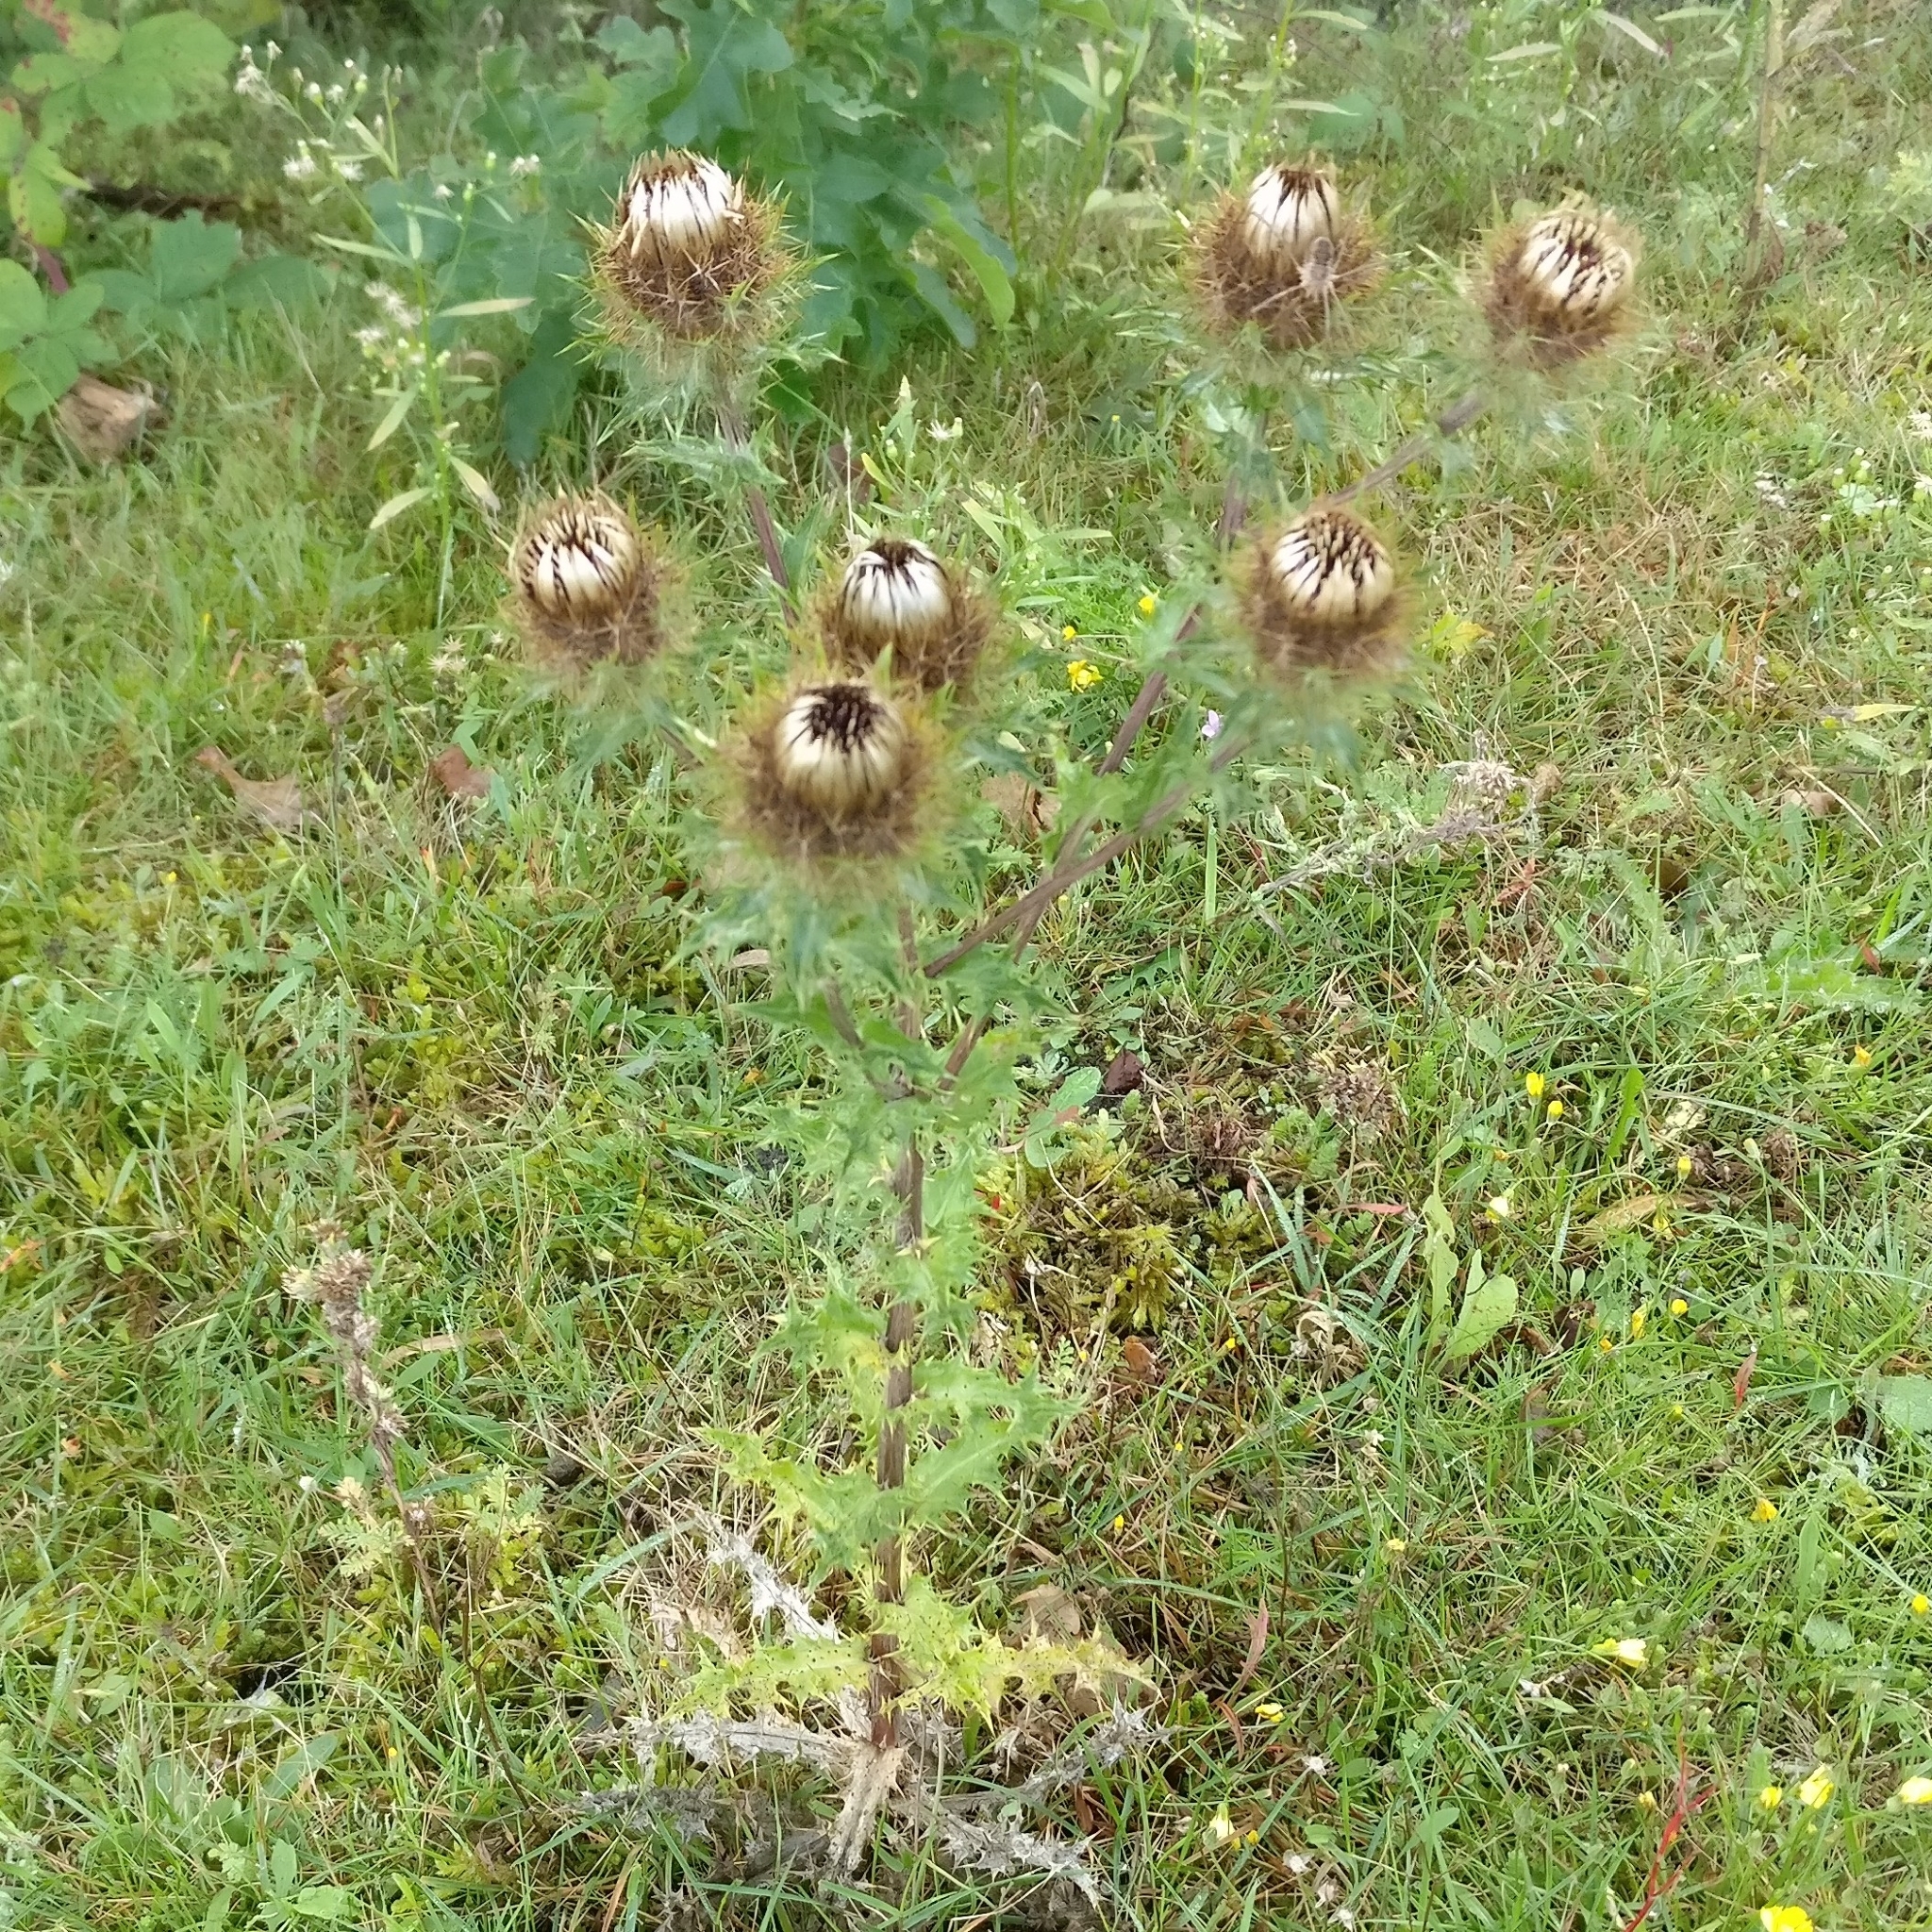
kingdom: Plantae
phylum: Tracheophyta
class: Magnoliopsida
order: Asterales
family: Asteraceae
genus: Carlina
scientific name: Carlina vulgaris
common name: Carline thistle
